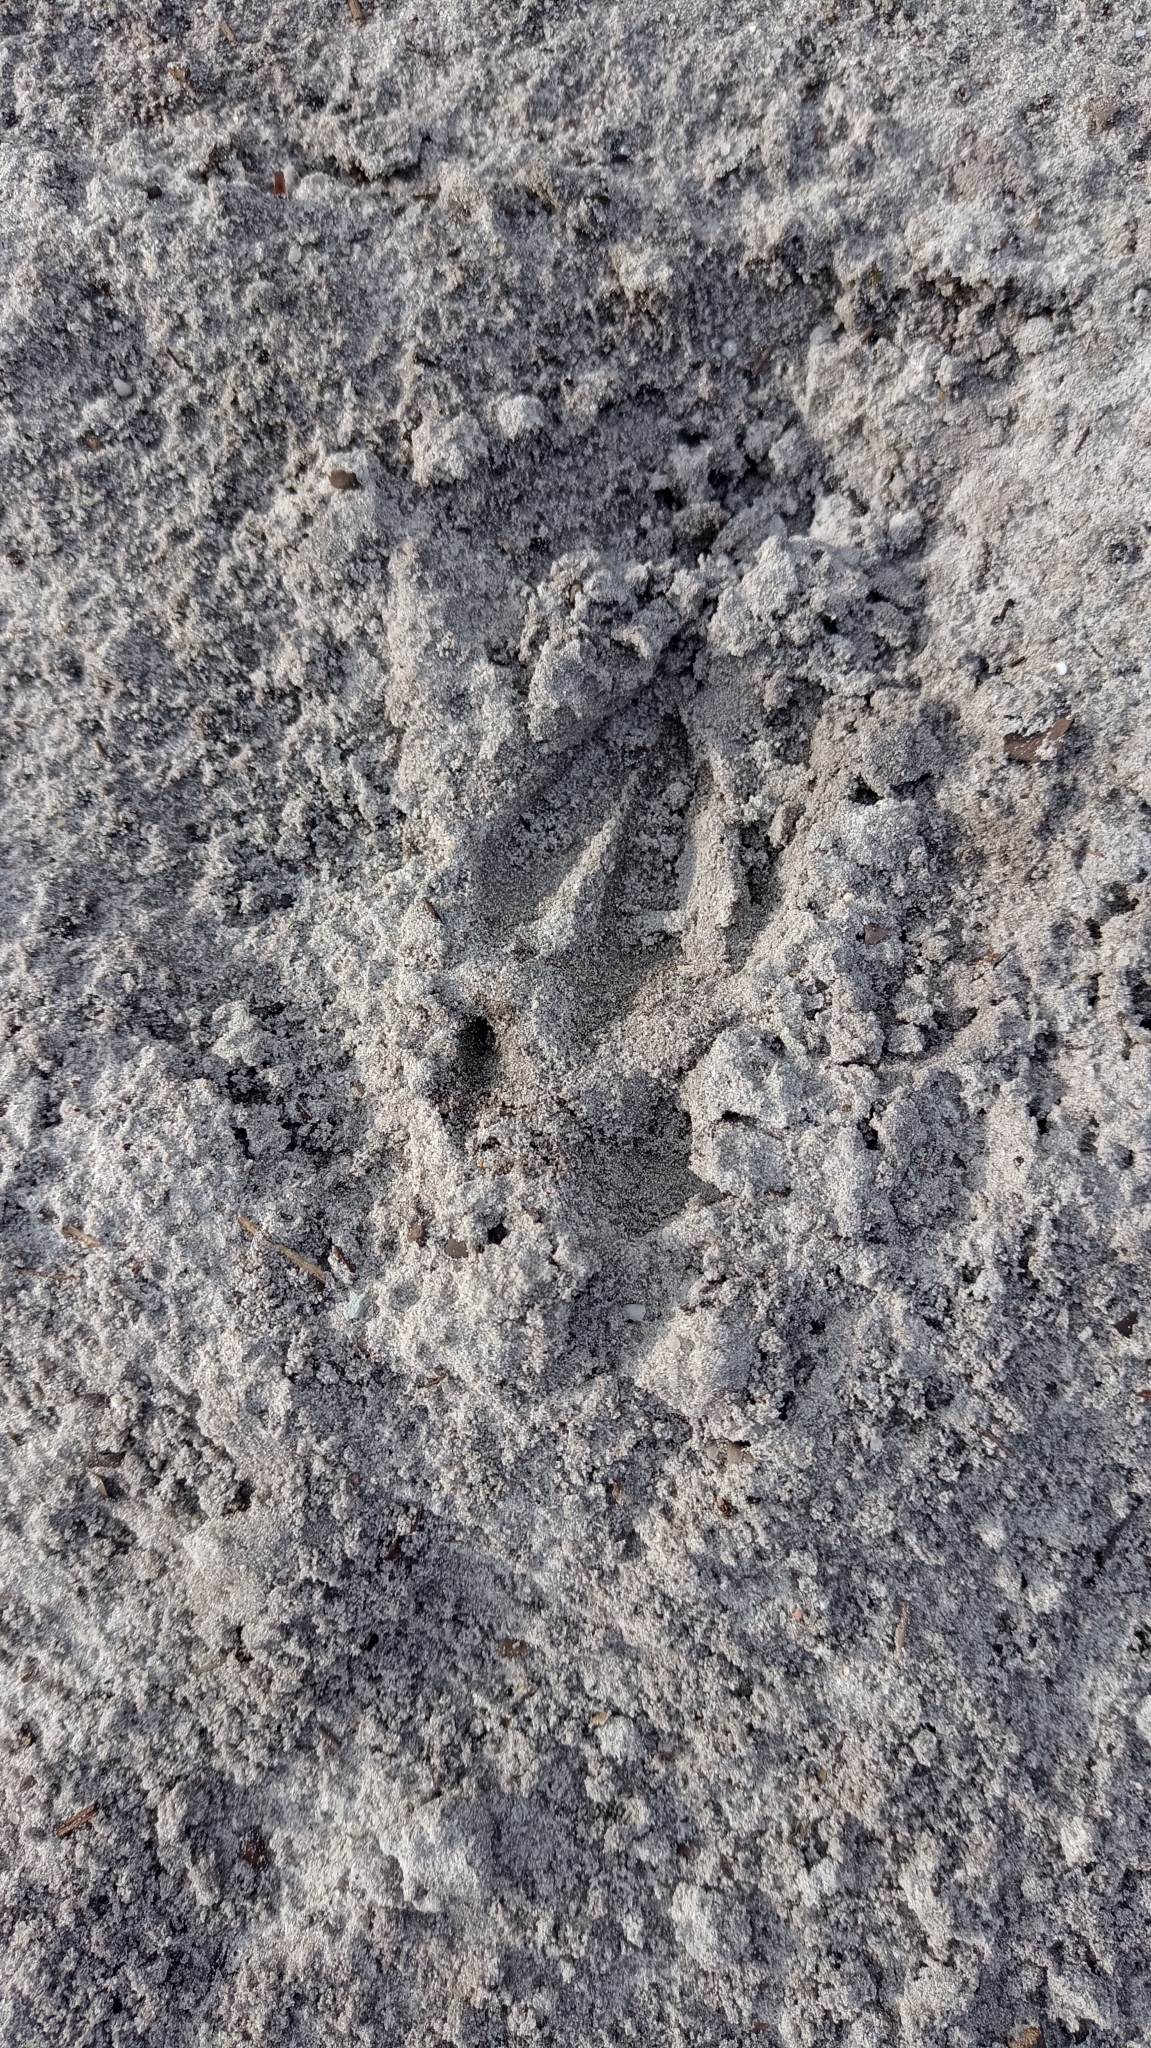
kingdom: Animalia
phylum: Chordata
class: Mammalia
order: Artiodactyla
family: Cervidae
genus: Capreolus
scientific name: Capreolus capreolus
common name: Western roe deer
